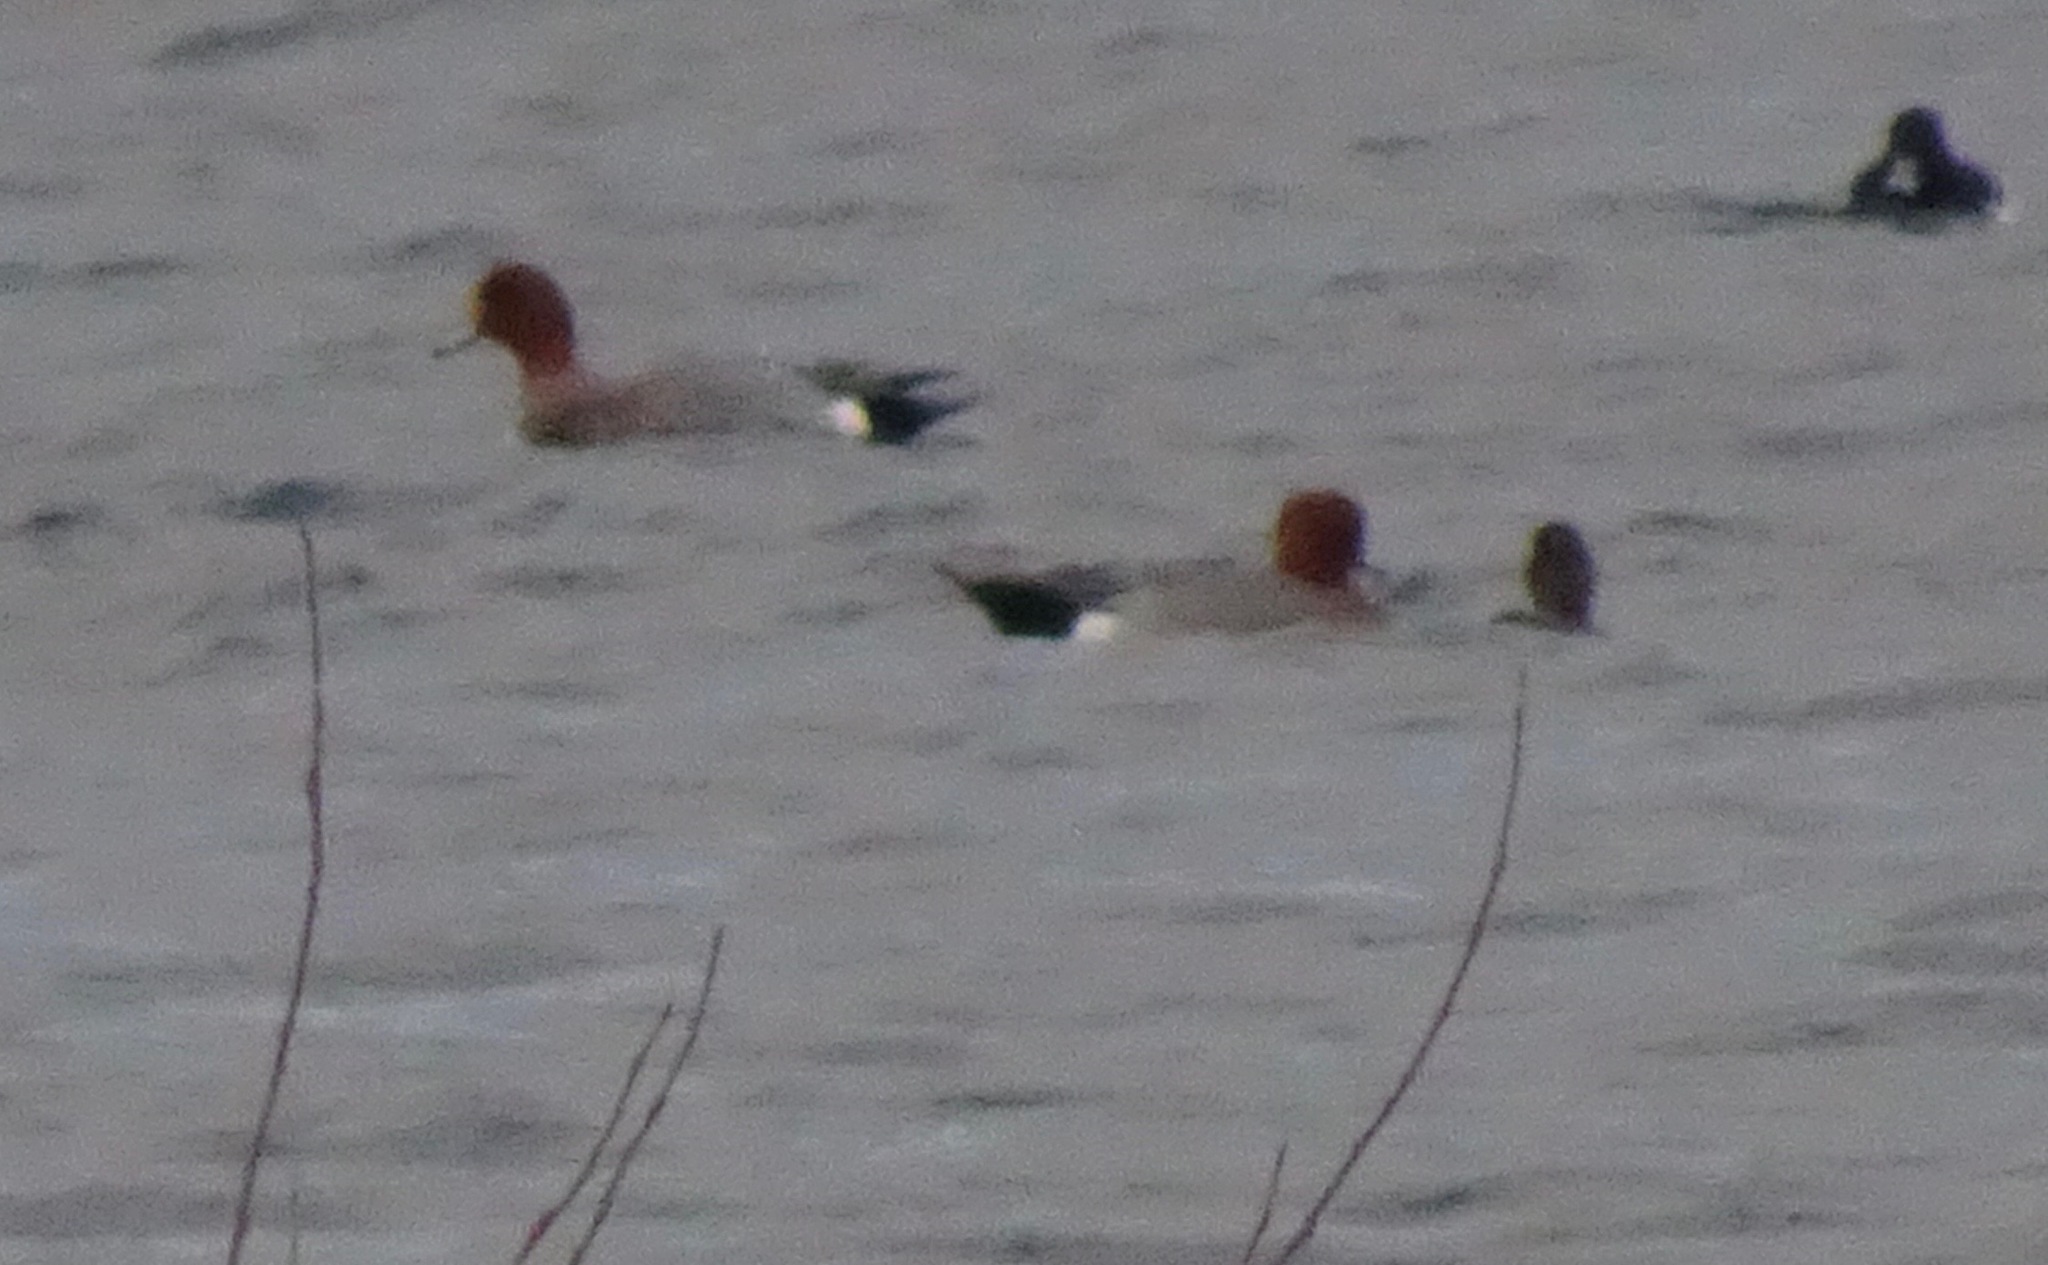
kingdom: Animalia
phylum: Chordata
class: Aves
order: Anseriformes
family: Anatidae
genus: Mareca
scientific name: Mareca penelope
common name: Eurasian wigeon
